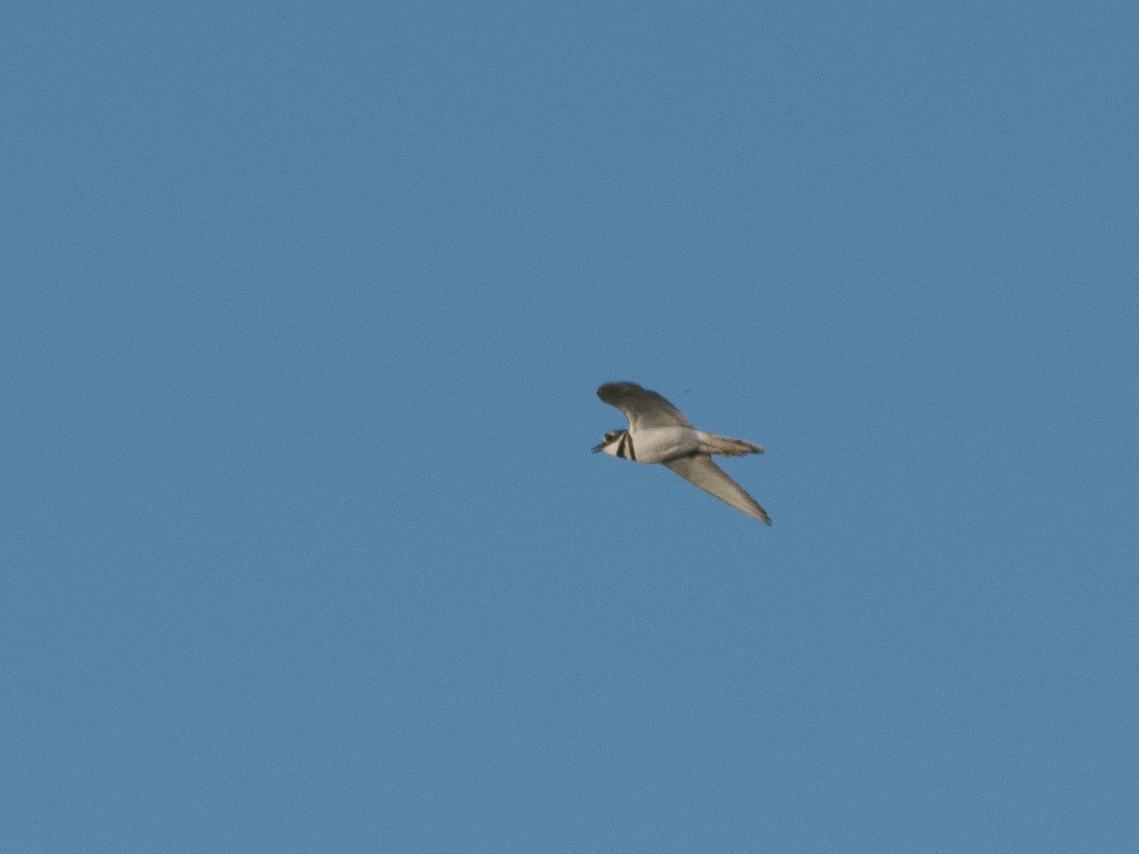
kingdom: Animalia
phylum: Chordata
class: Aves
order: Charadriiformes
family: Charadriidae
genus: Charadrius
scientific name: Charadrius vociferus
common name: Killdeer
